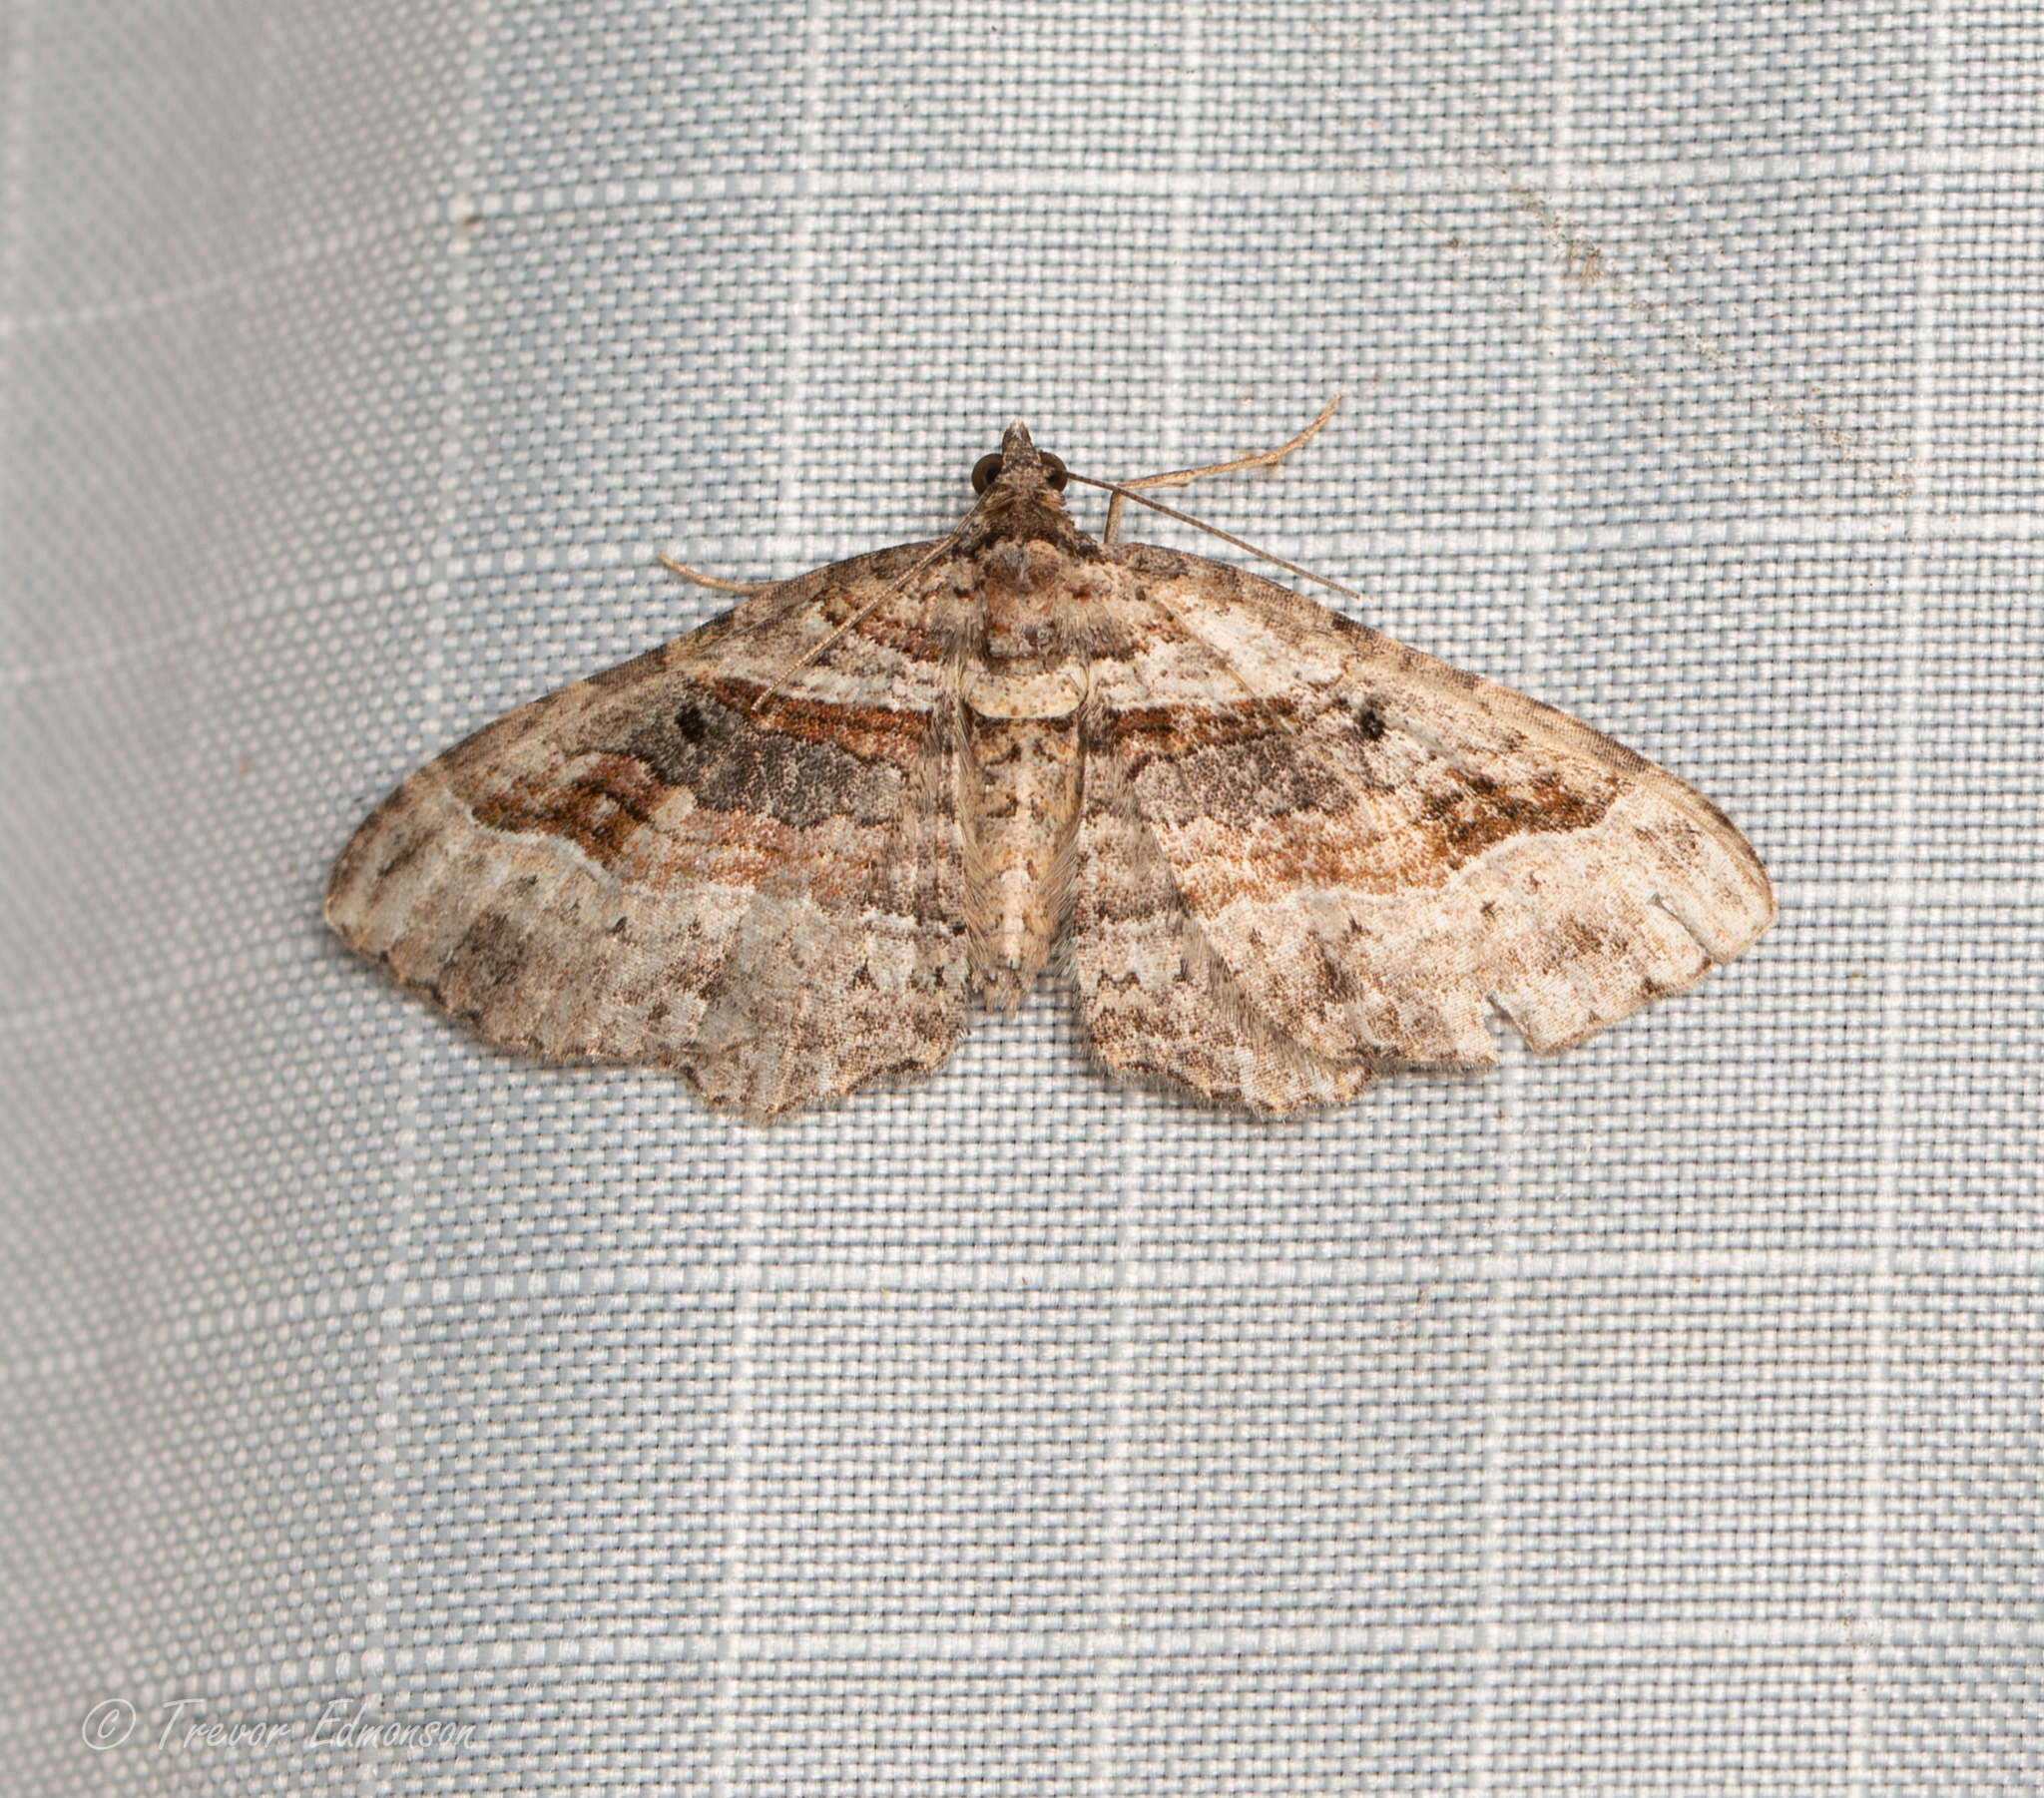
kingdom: Animalia
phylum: Arthropoda
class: Insecta
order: Lepidoptera
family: Geometridae
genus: Costaconvexa
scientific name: Costaconvexa centrostrigaria
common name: Bent-line carpet
